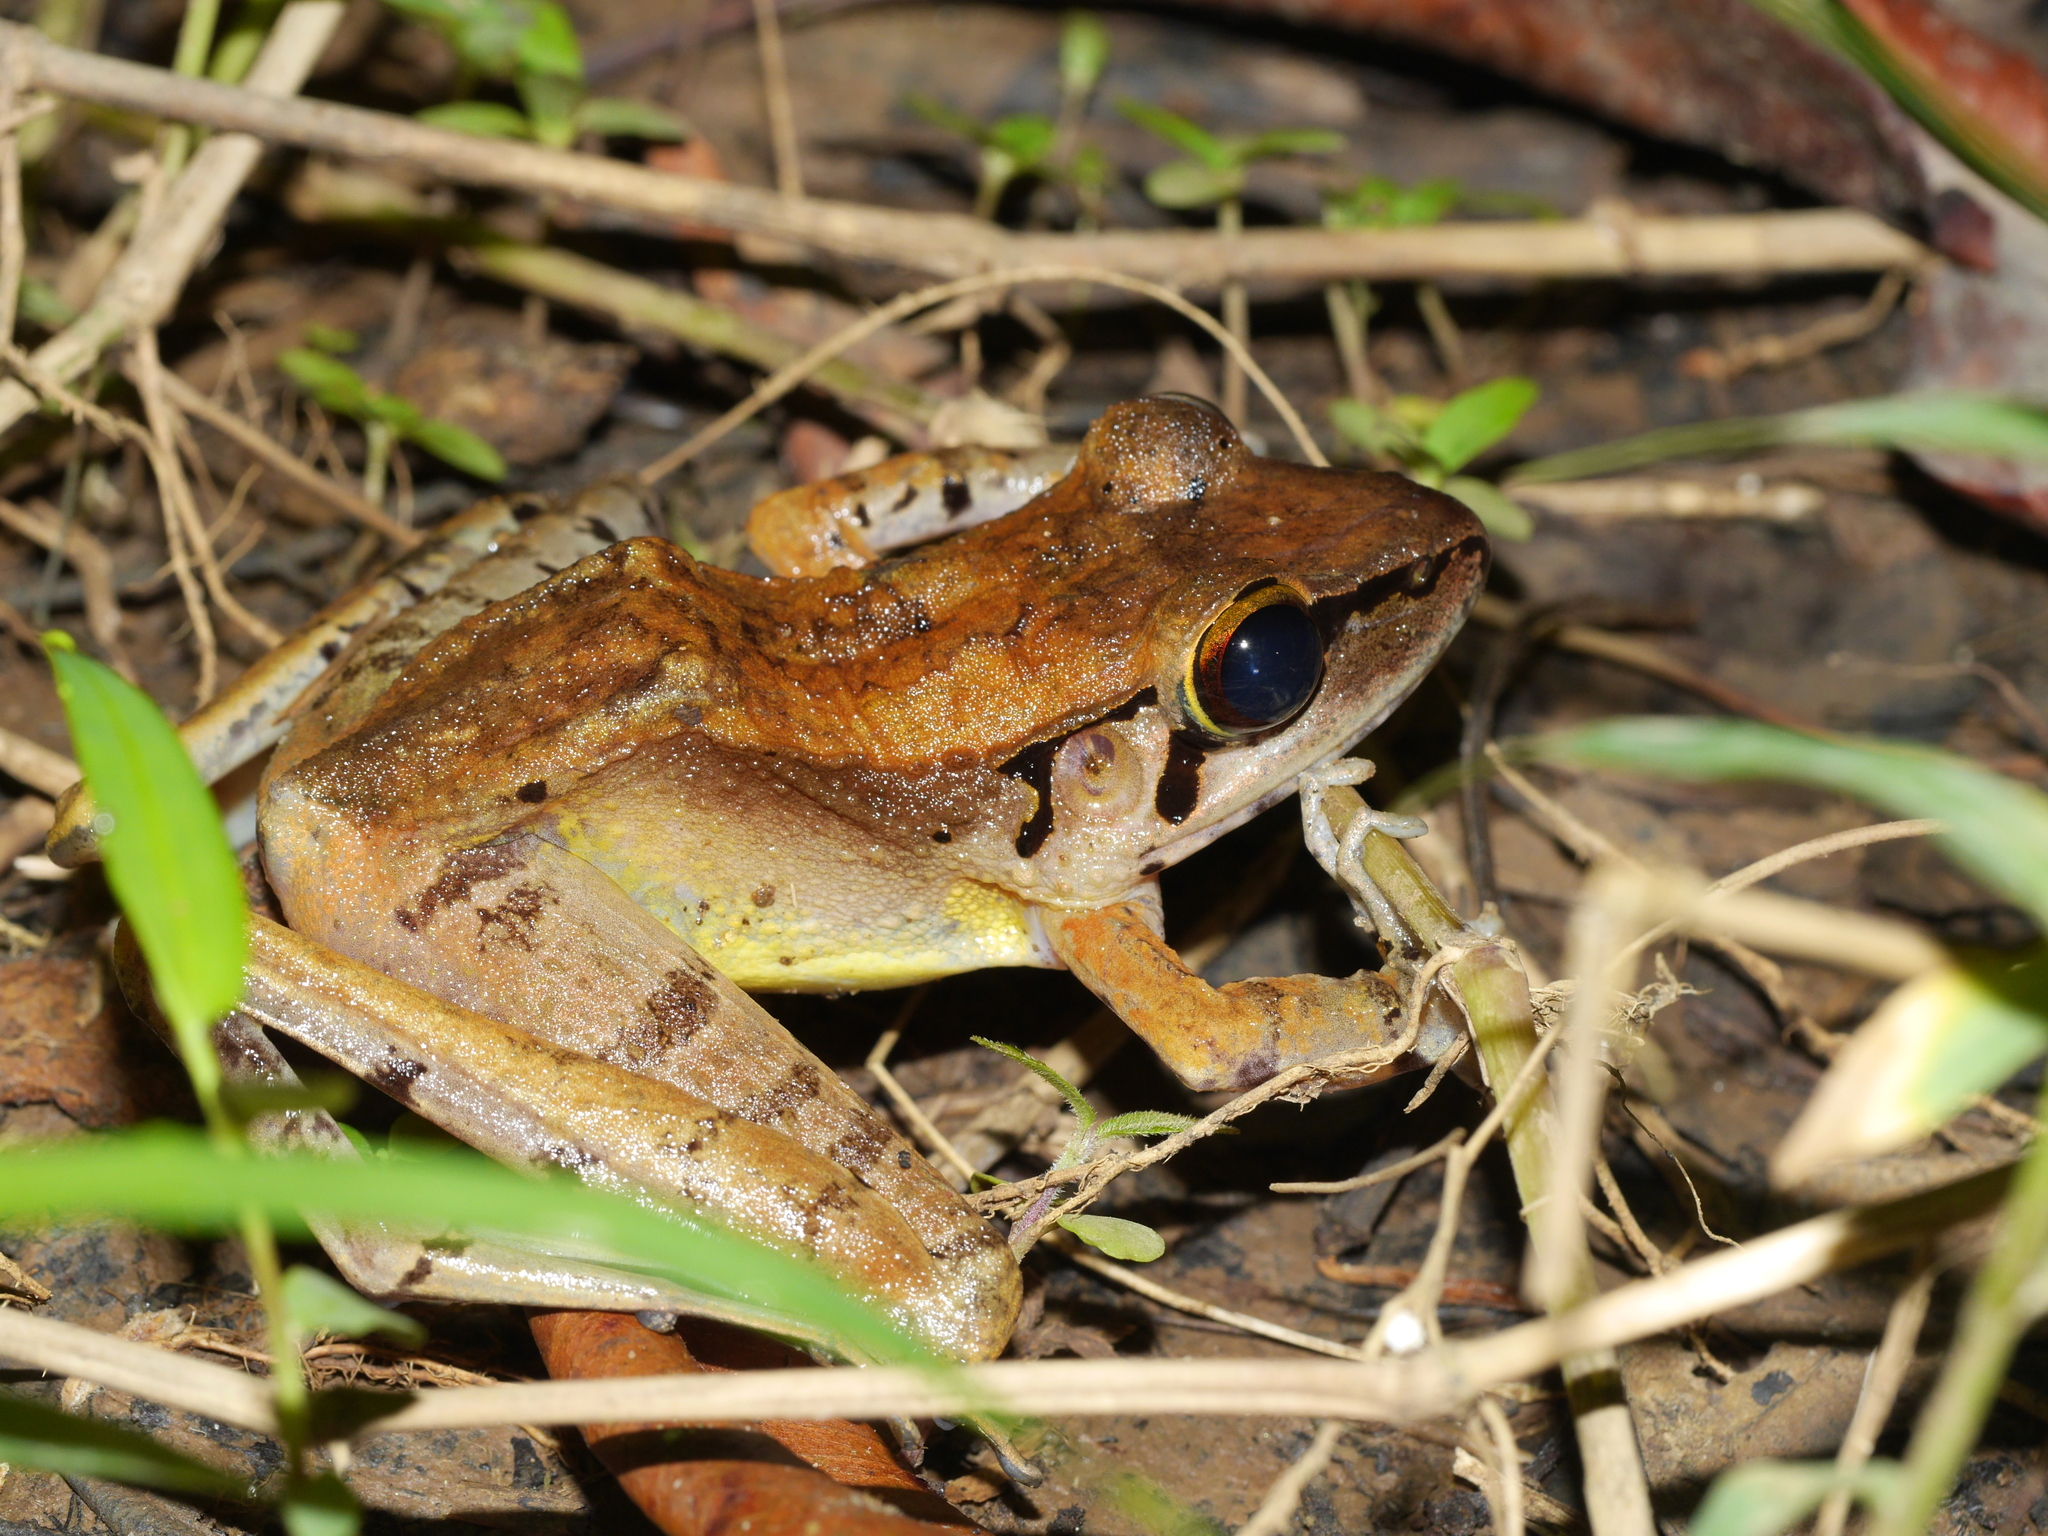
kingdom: Animalia
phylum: Chordata
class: Amphibia
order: Anura
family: Ranidae
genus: Huia
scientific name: Huia sumatrana
